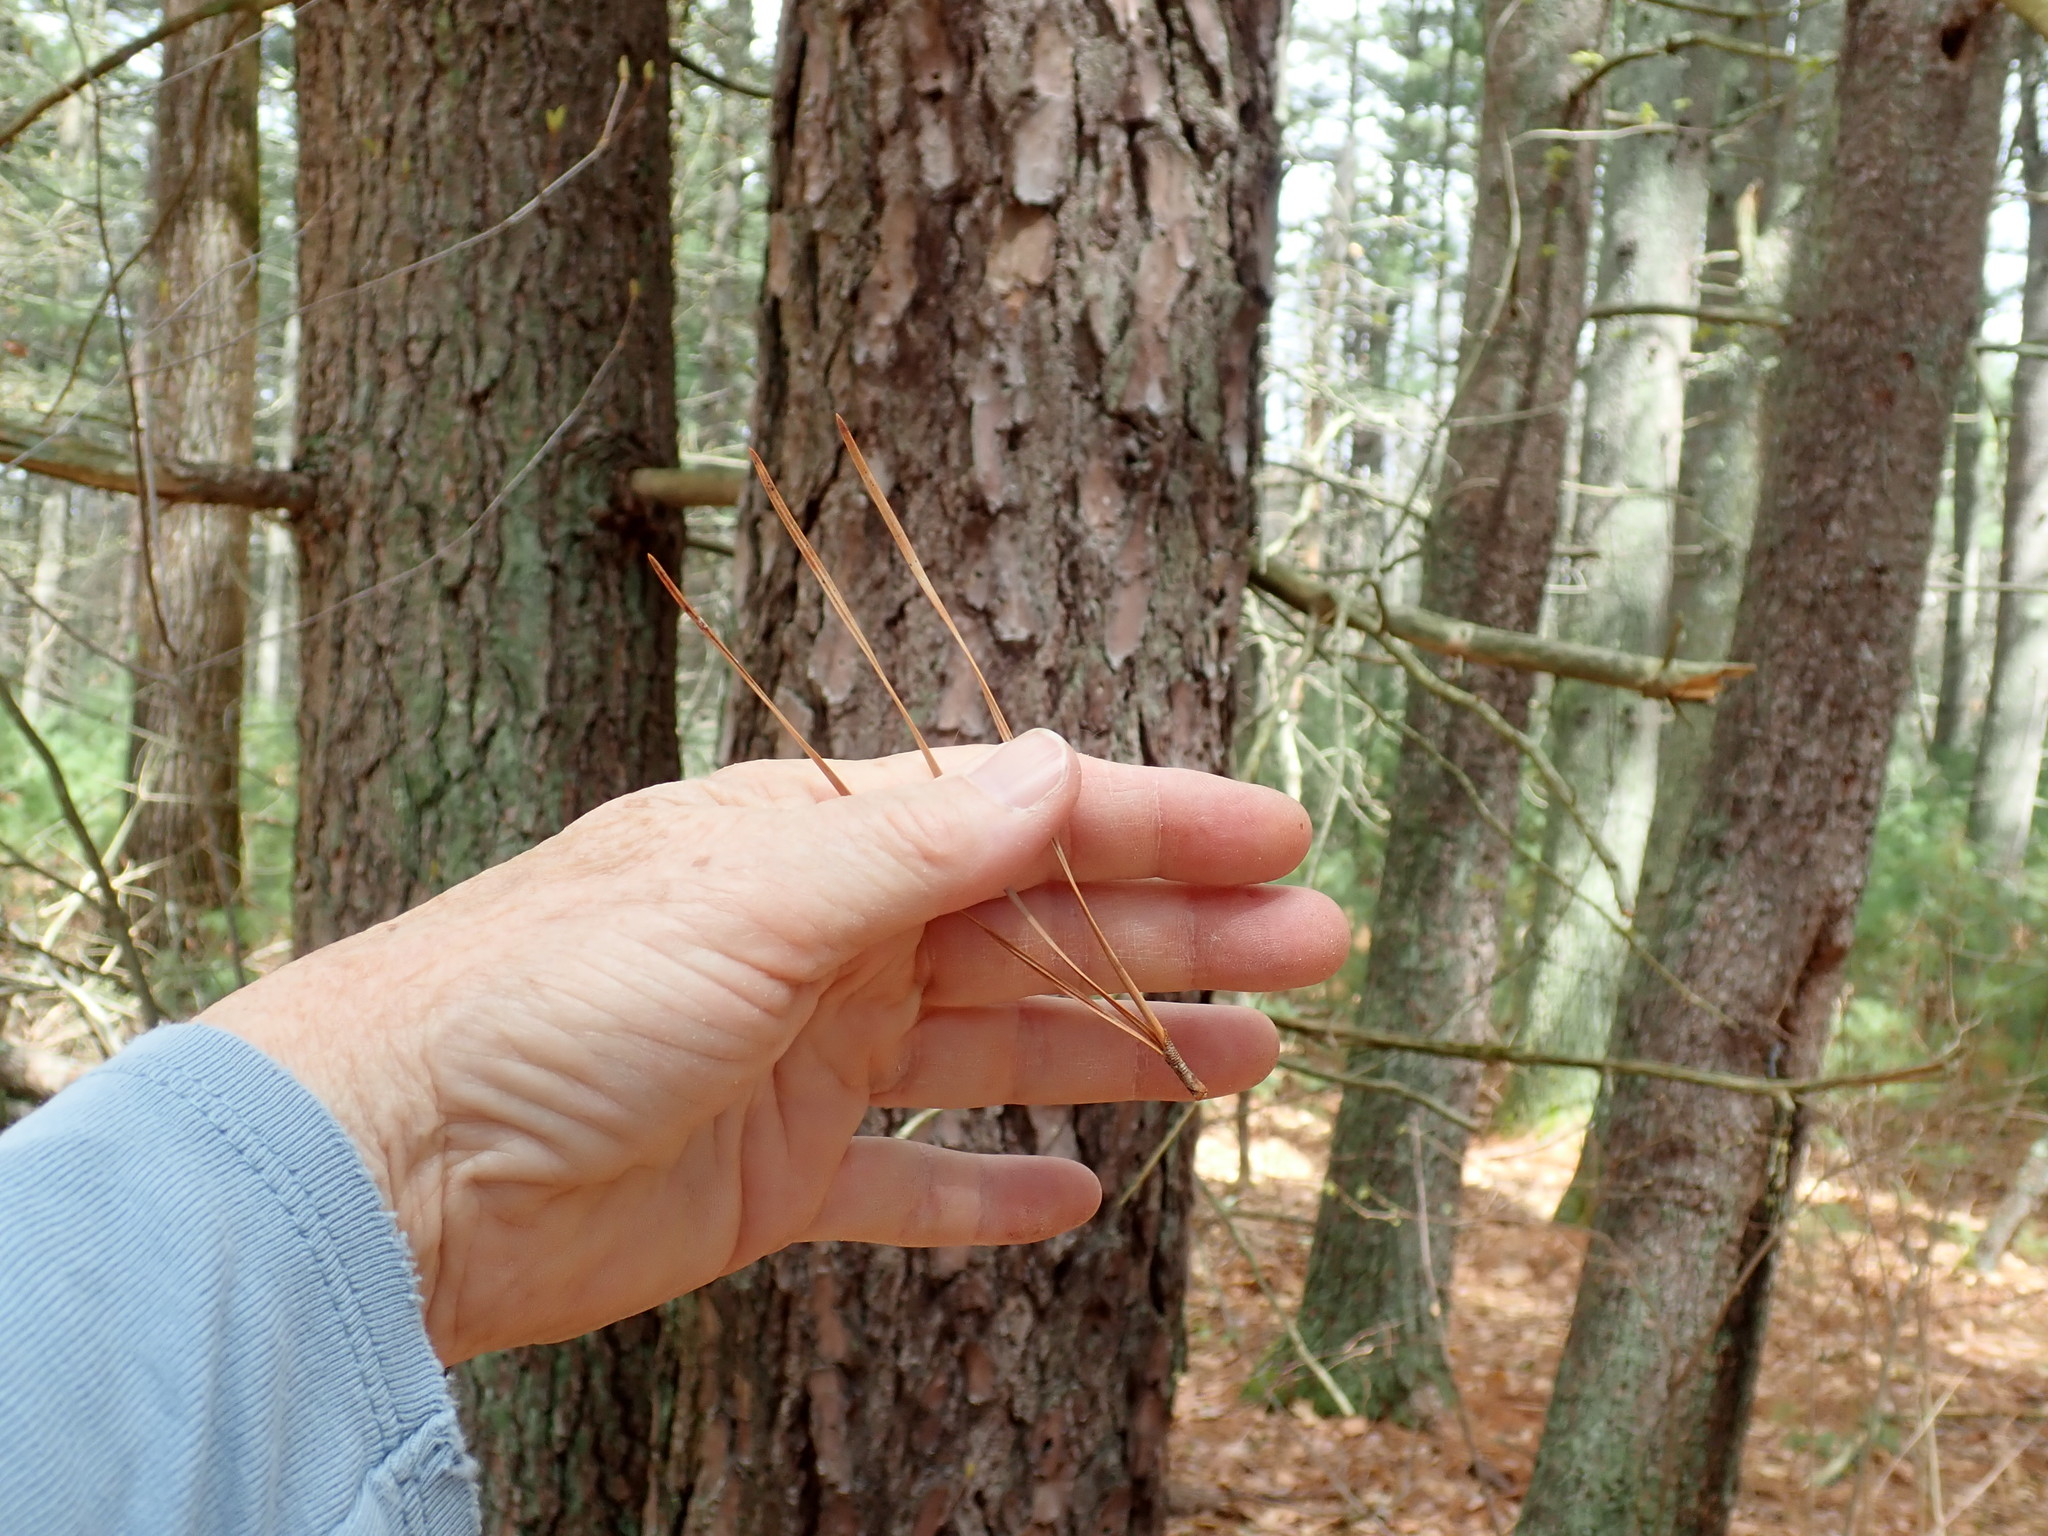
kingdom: Plantae
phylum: Tracheophyta
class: Pinopsida
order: Pinales
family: Pinaceae
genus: Pinus
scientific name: Pinus rigida
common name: Pitch pine
